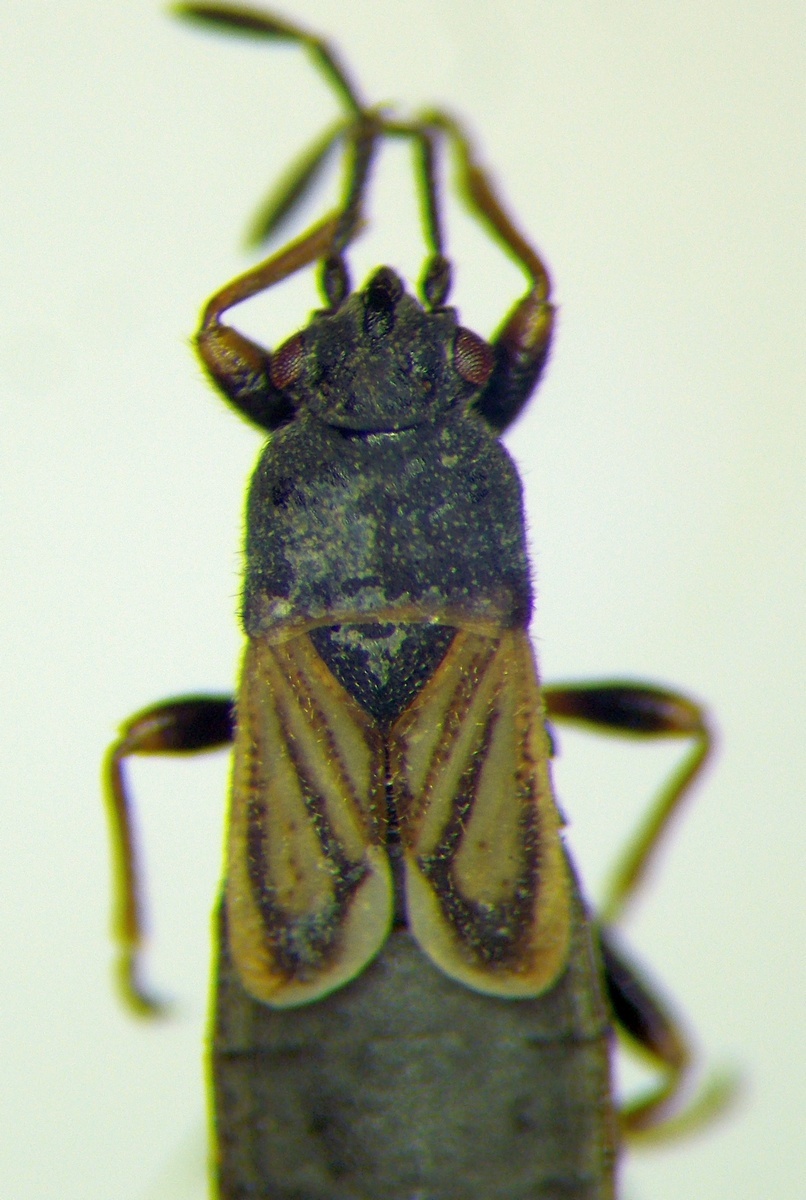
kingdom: Animalia
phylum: Arthropoda
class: Insecta
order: Hemiptera
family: Blissidae
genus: Ischnodemus
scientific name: Ischnodemus sabuleti
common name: European cinchbug
